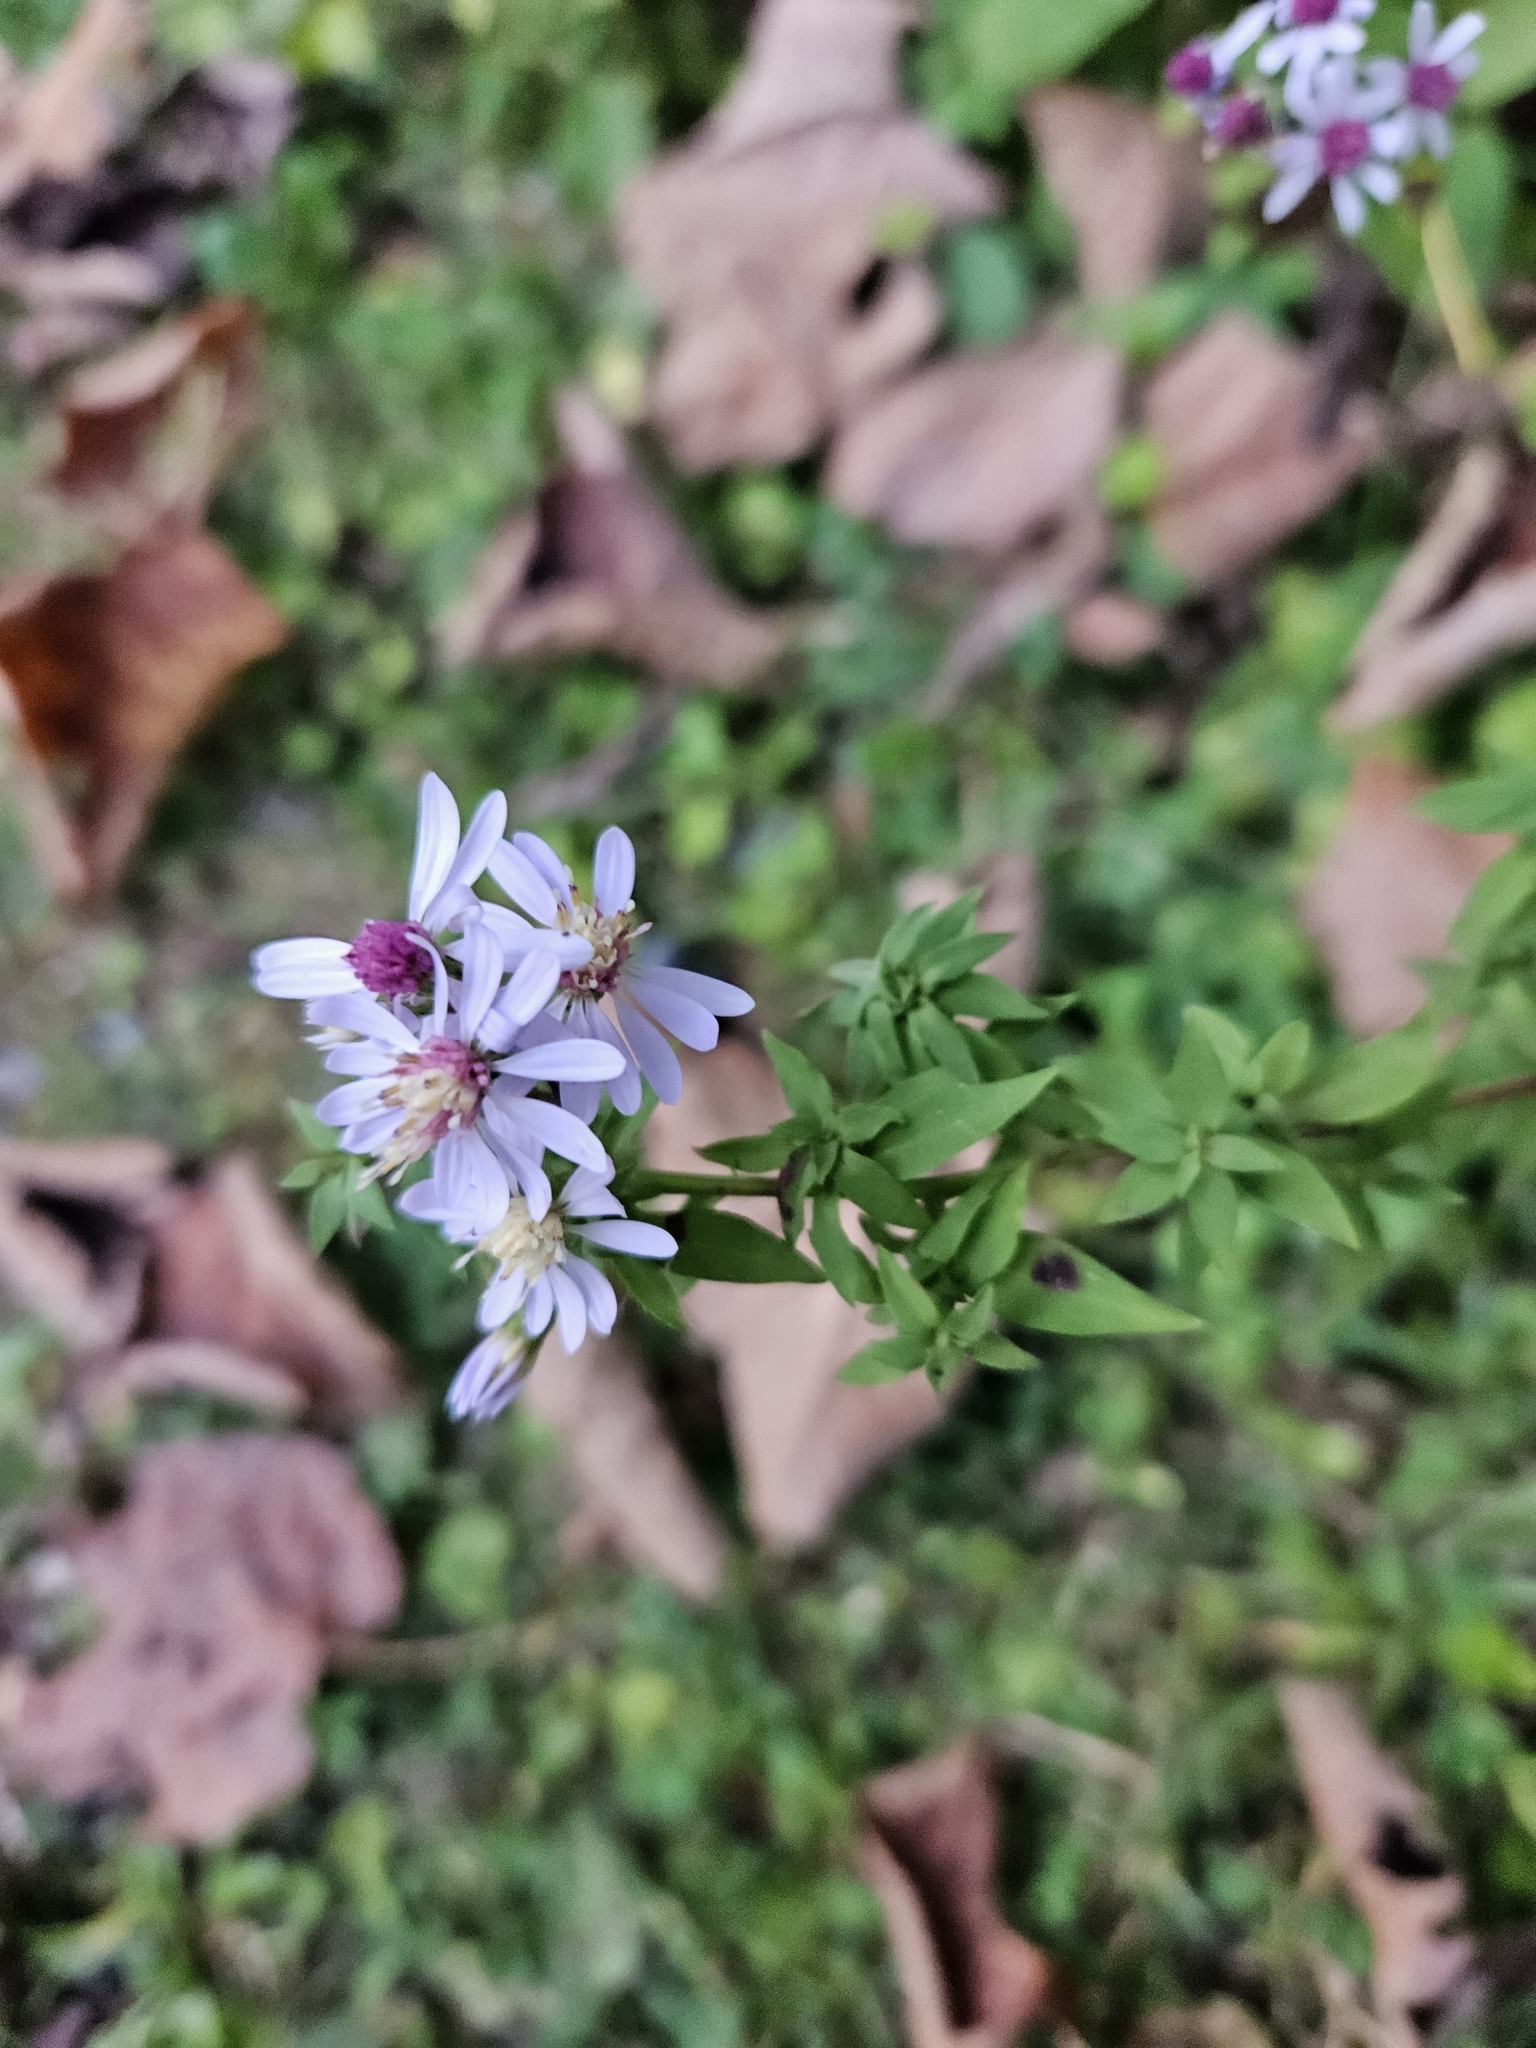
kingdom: Plantae
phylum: Tracheophyta
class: Magnoliopsida
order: Asterales
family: Asteraceae
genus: Symphyotrichum
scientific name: Symphyotrichum cordifolium
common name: Beeweed
